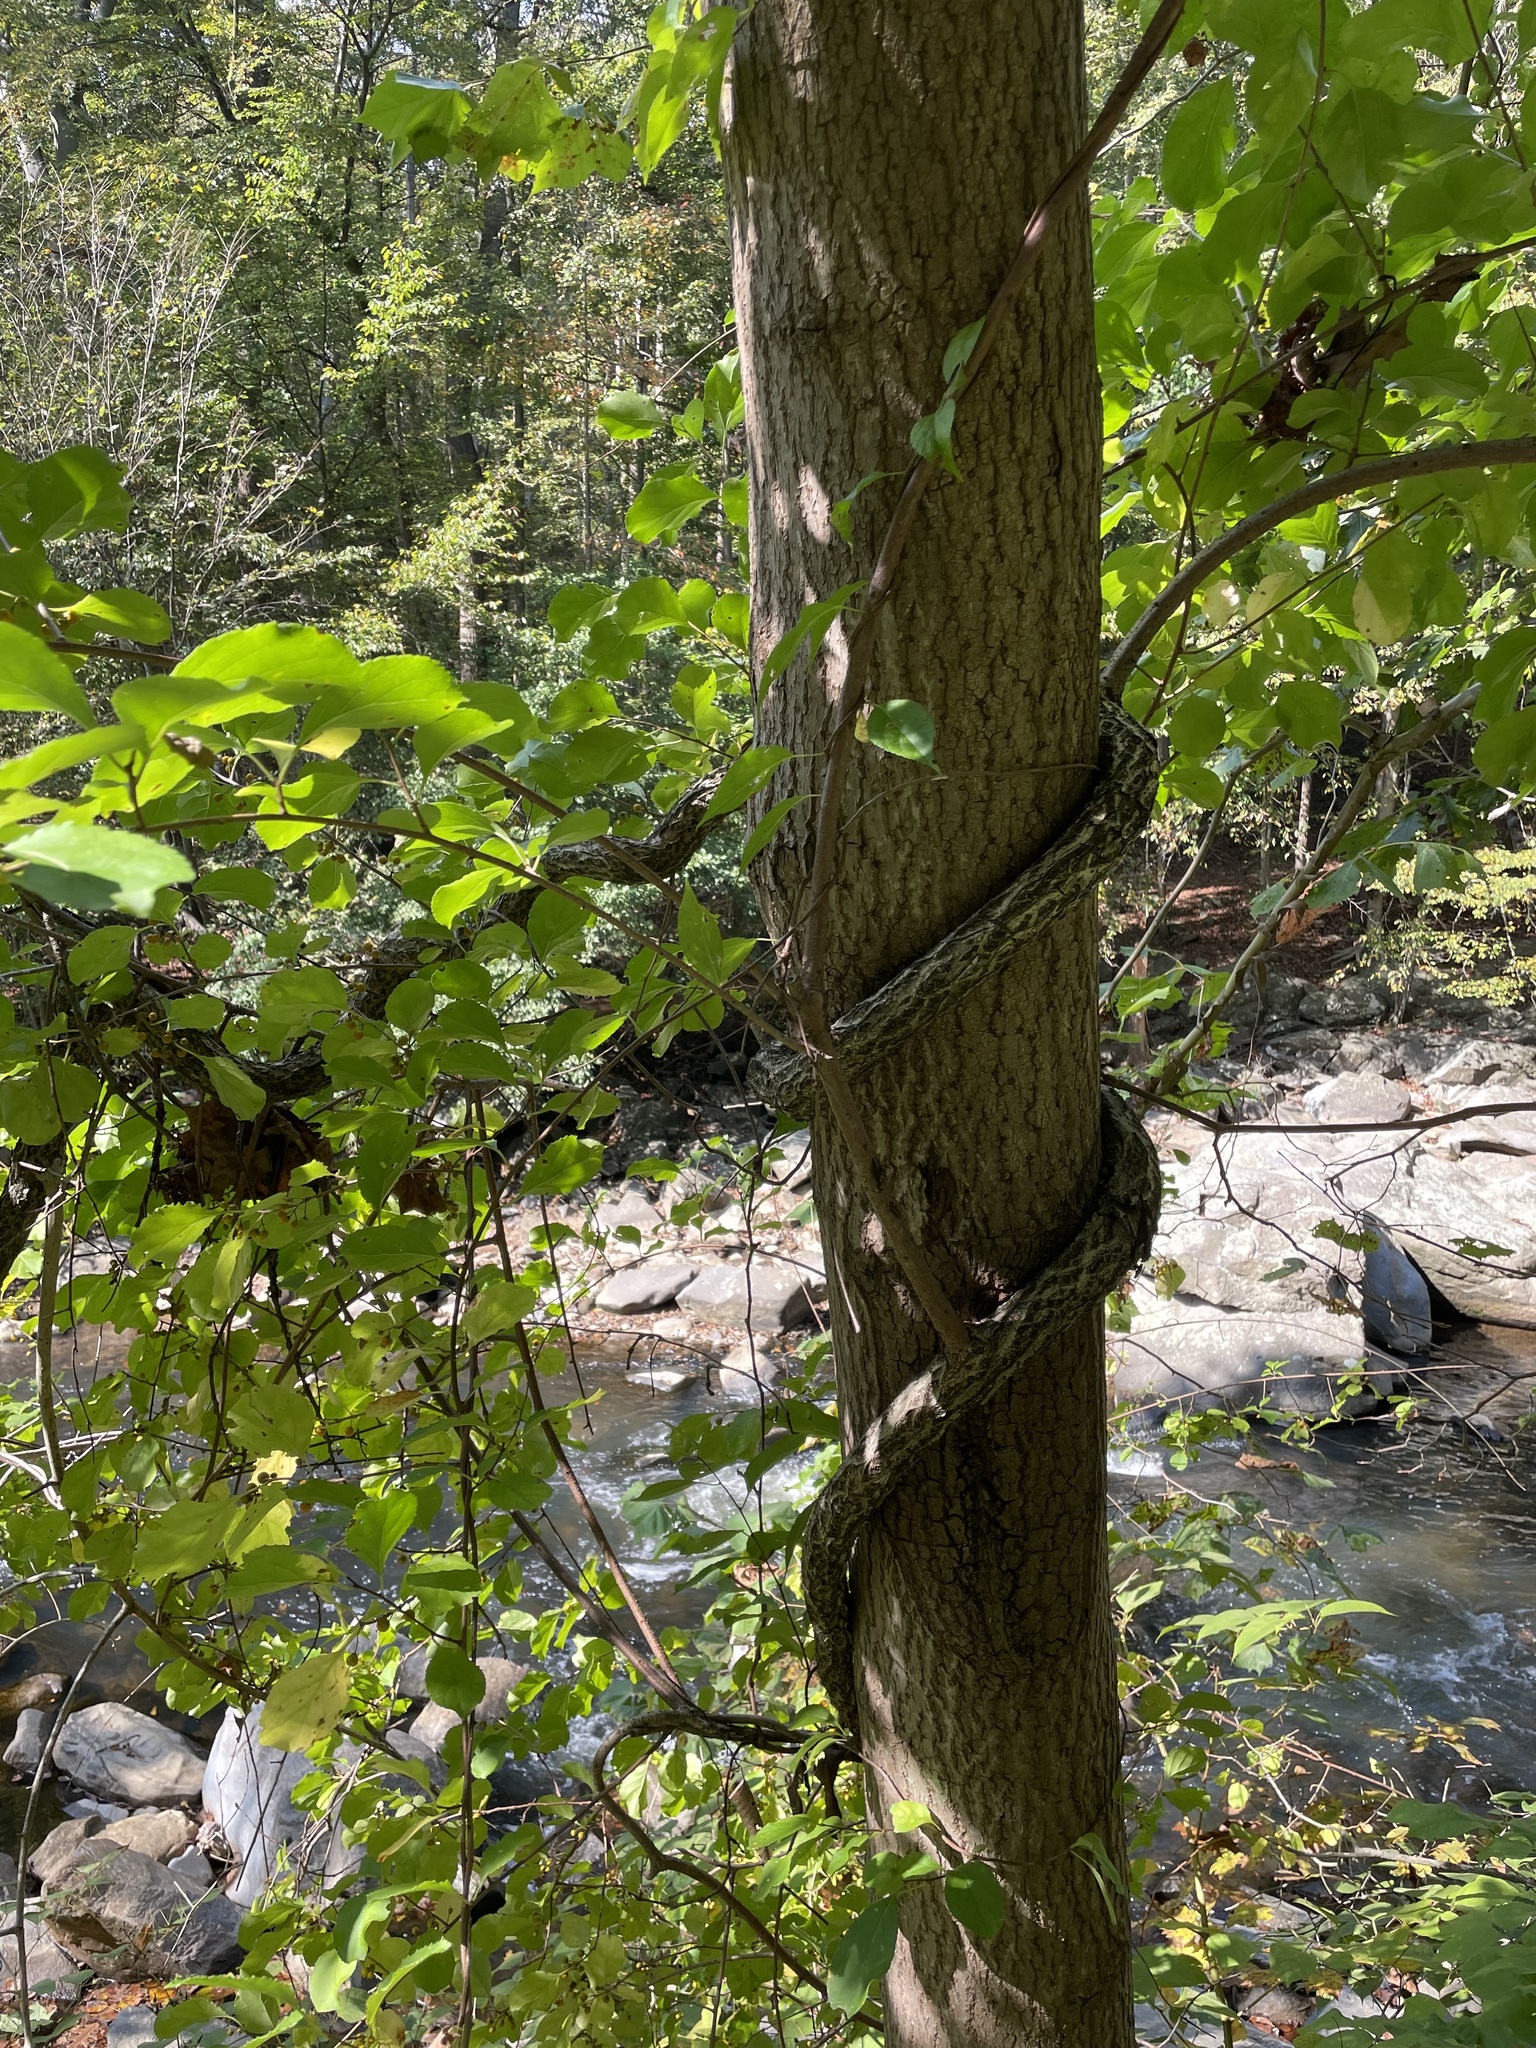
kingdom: Plantae
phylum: Tracheophyta
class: Magnoliopsida
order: Celastrales
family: Celastraceae
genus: Celastrus
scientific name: Celastrus orbiculatus
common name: Oriental bittersweet
